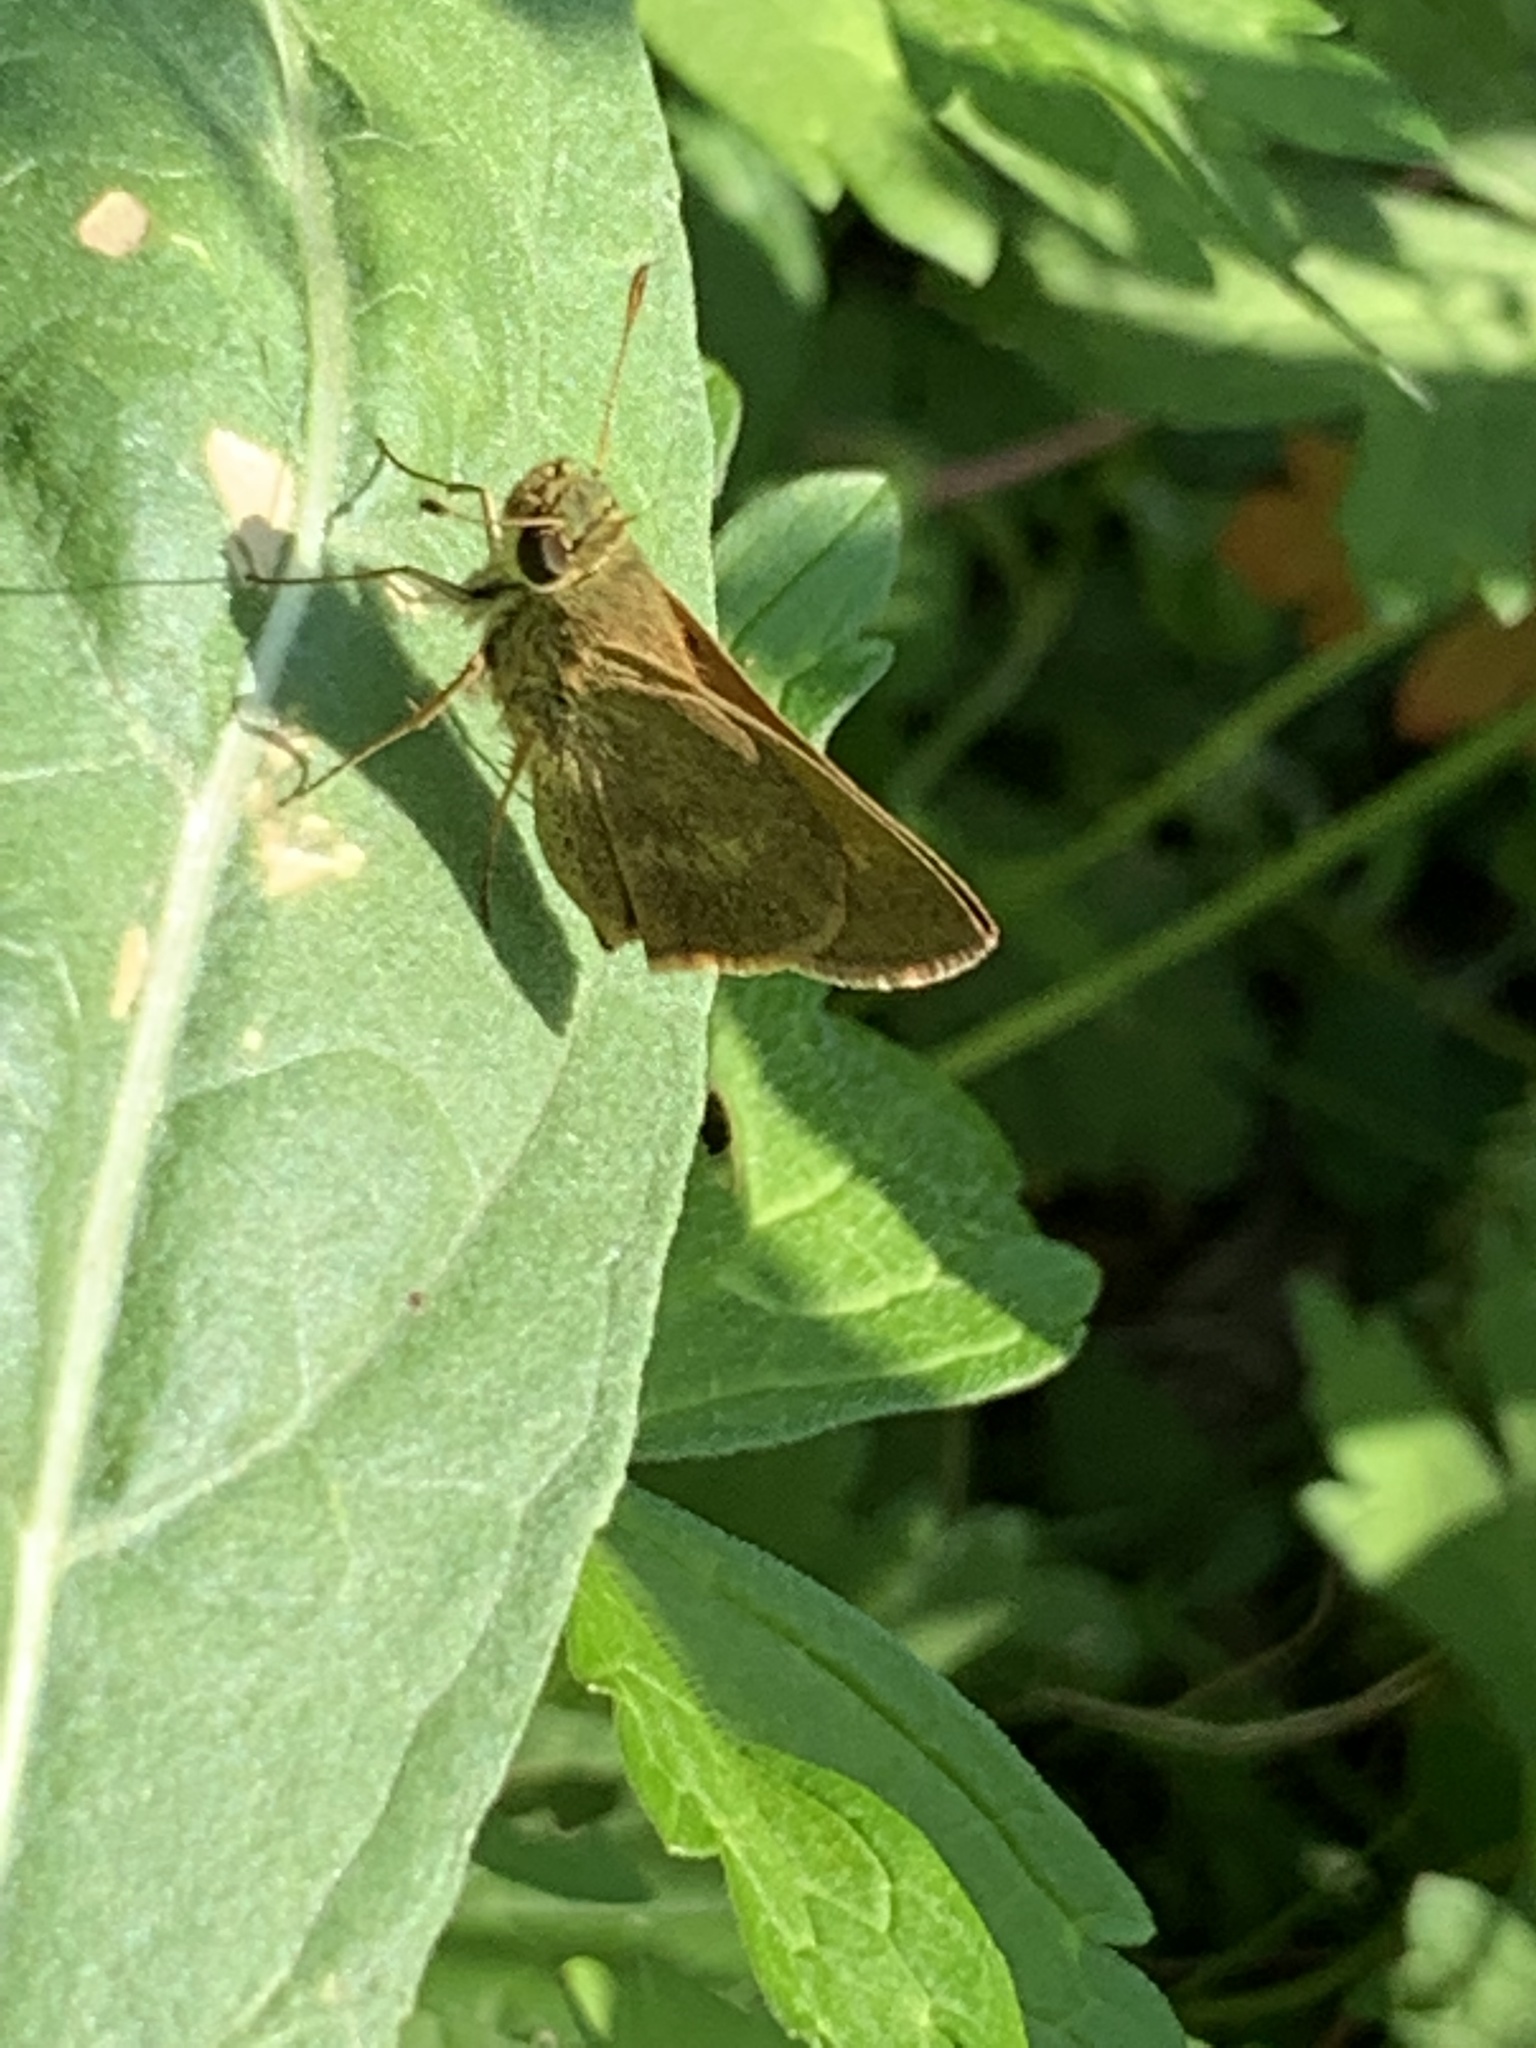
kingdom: Animalia
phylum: Arthropoda
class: Insecta
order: Lepidoptera
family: Hesperiidae
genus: Polites
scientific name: Polites egeremet
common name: Northern broken-dash
